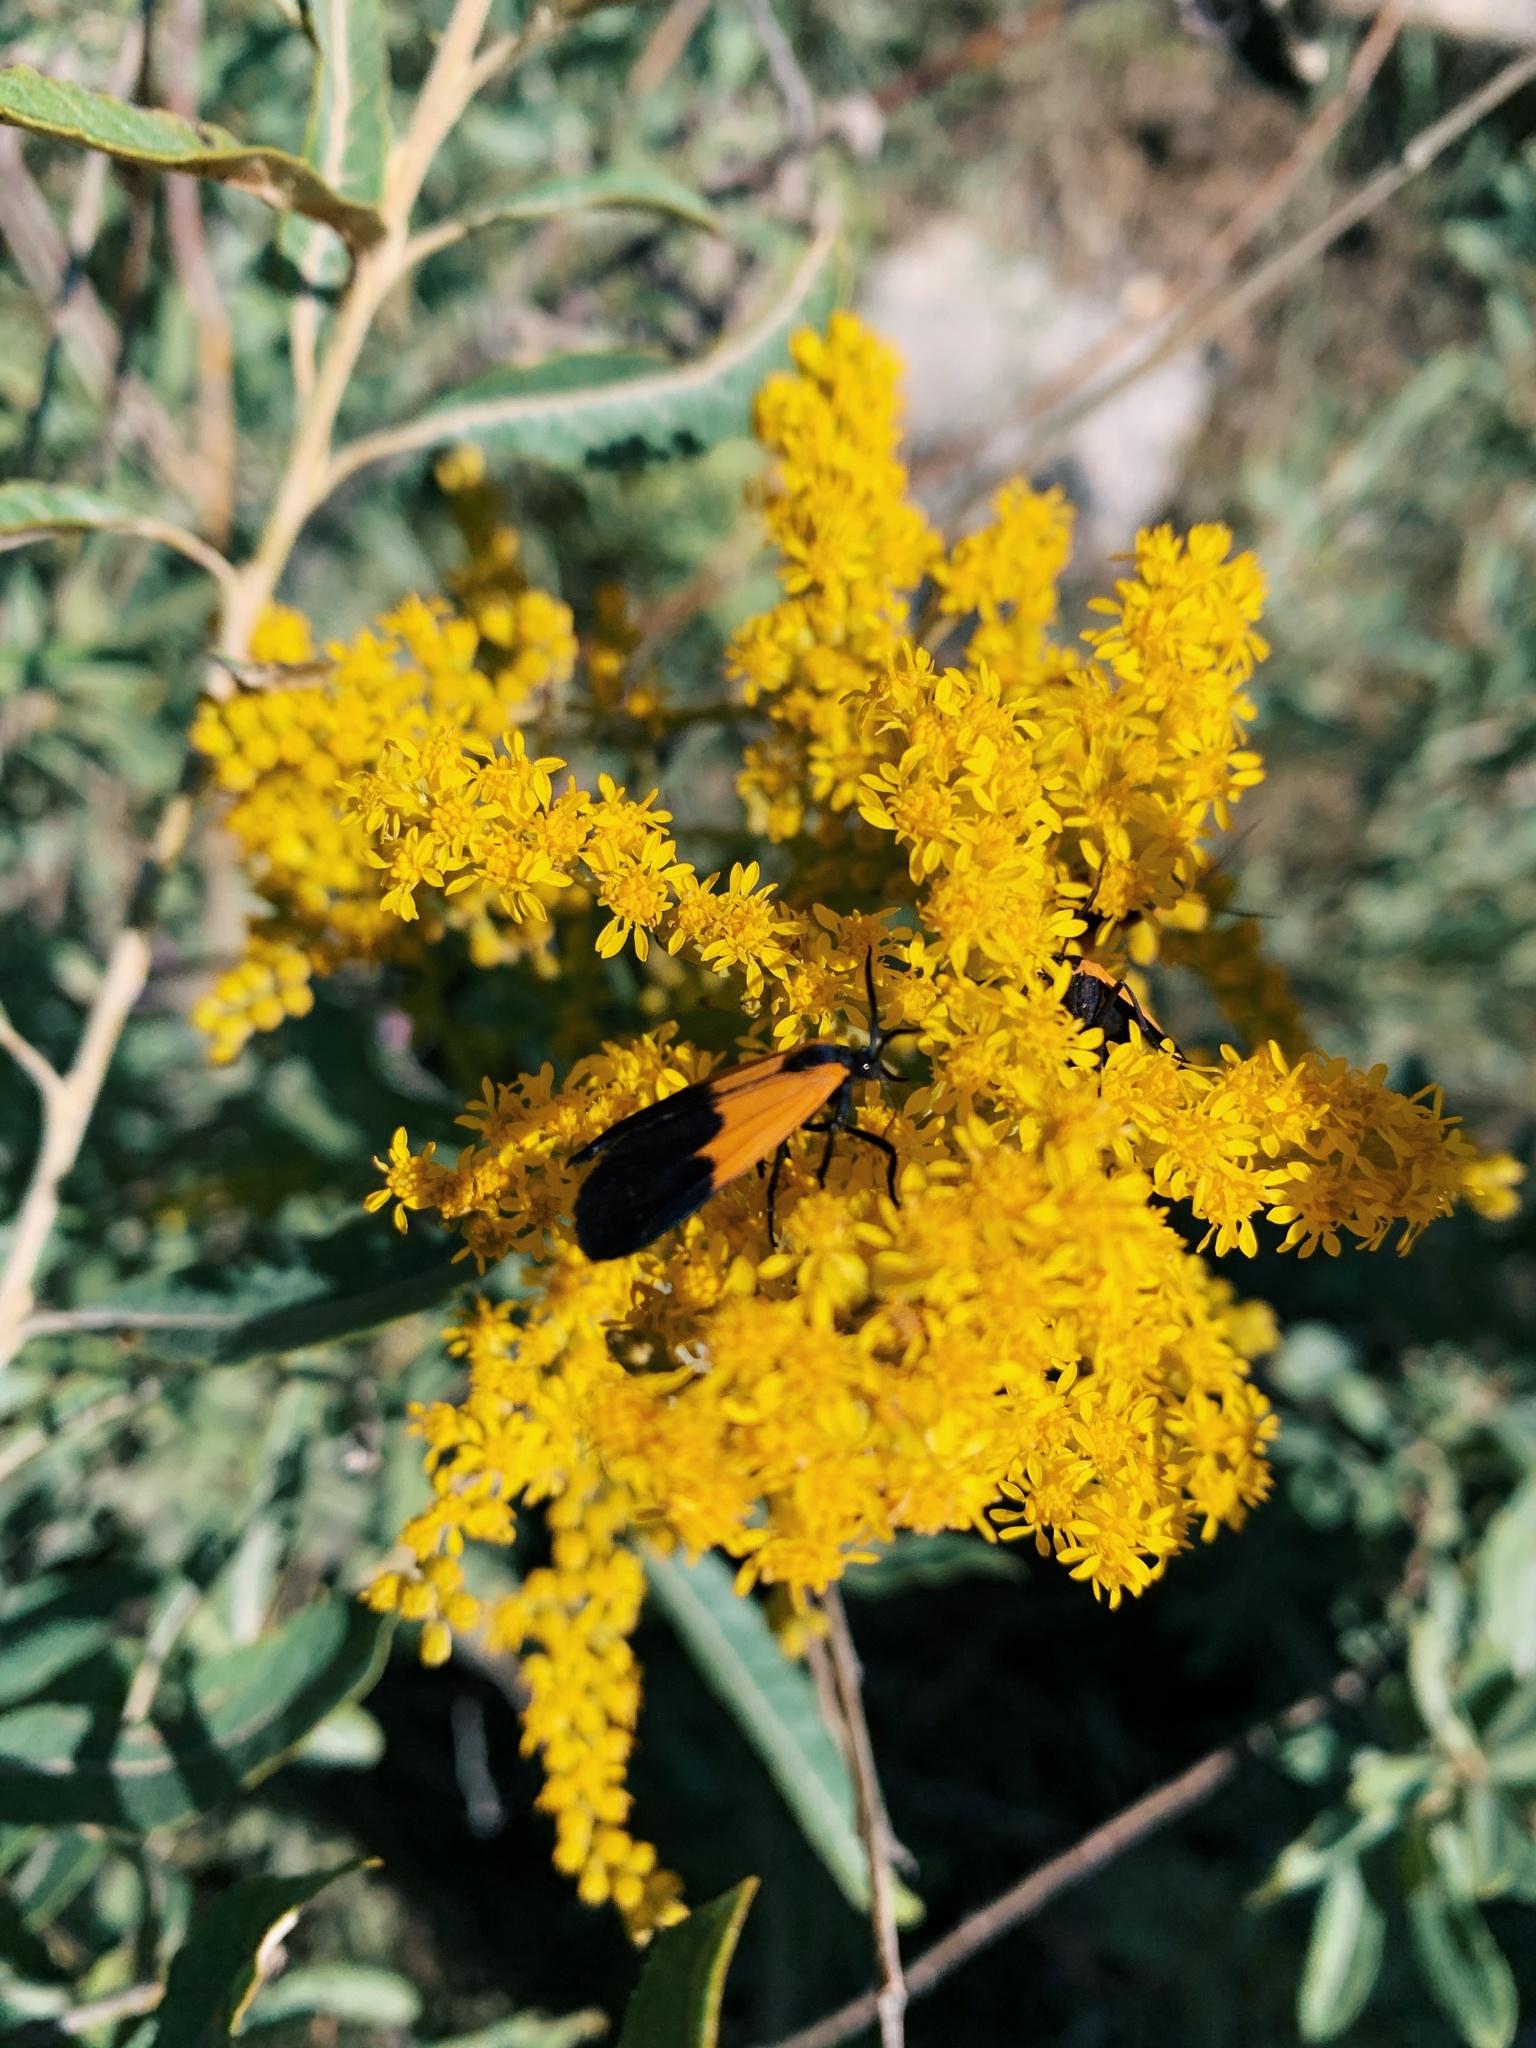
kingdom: Animalia
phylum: Arthropoda
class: Insecta
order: Lepidoptera
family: Erebidae
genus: Lycomorpha
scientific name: Lycomorpha pholus
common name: Black-and-yellow lichen moth
